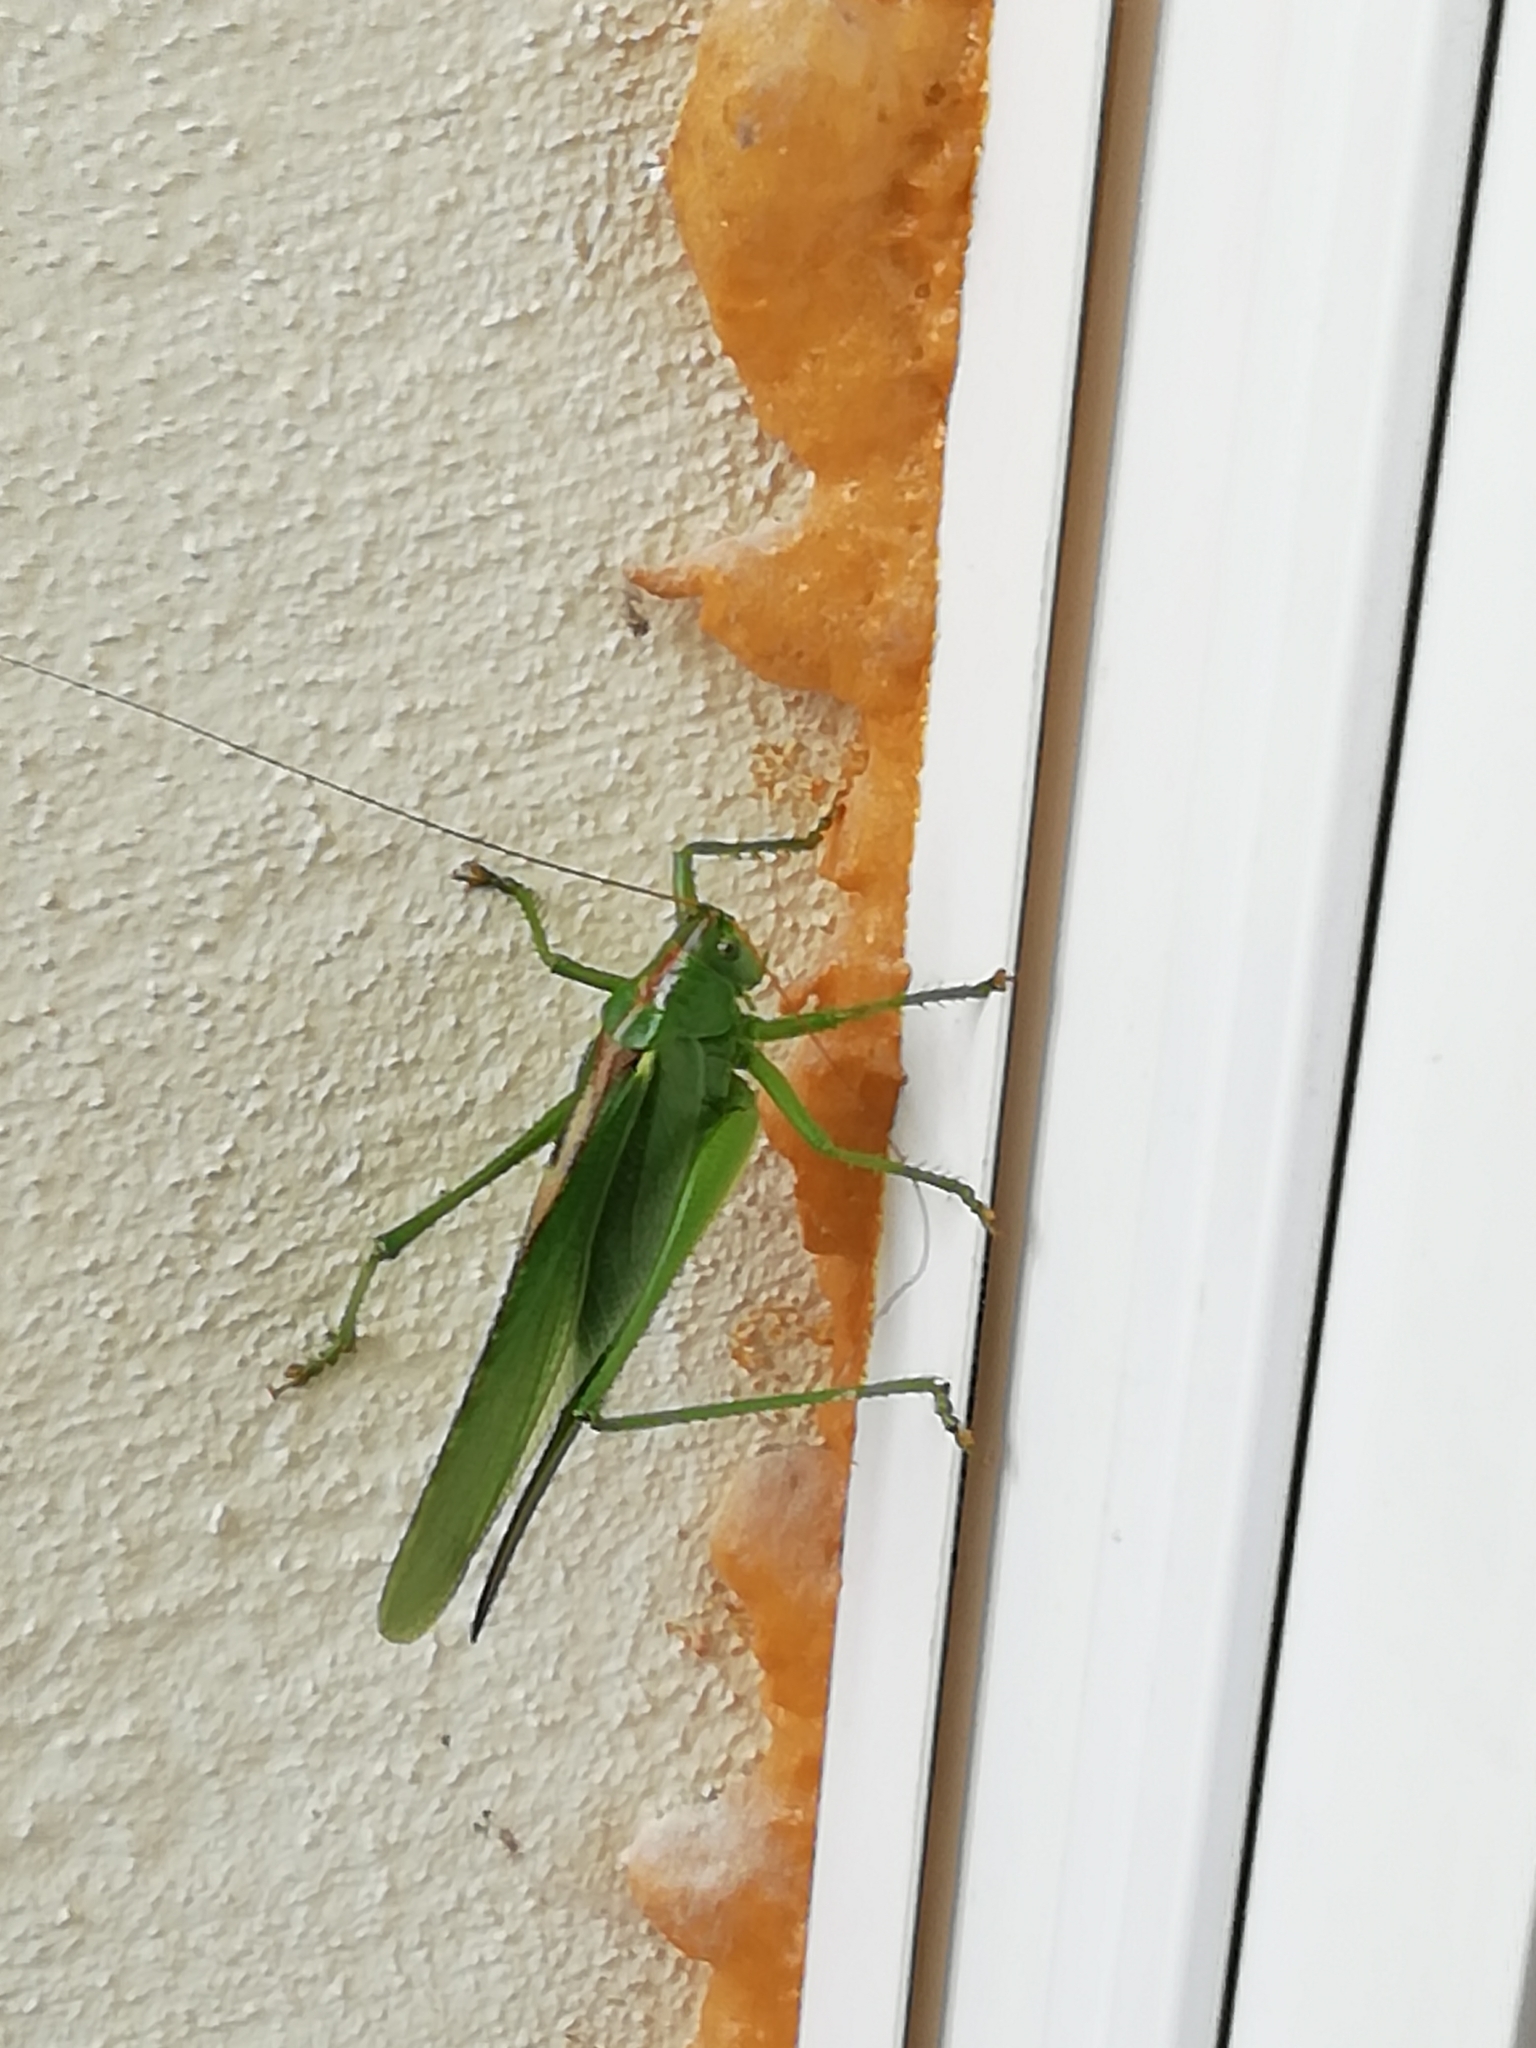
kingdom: Animalia
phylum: Arthropoda
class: Insecta
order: Orthoptera
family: Tettigoniidae
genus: Tettigonia
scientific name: Tettigonia viridissima
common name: Great green bush-cricket
